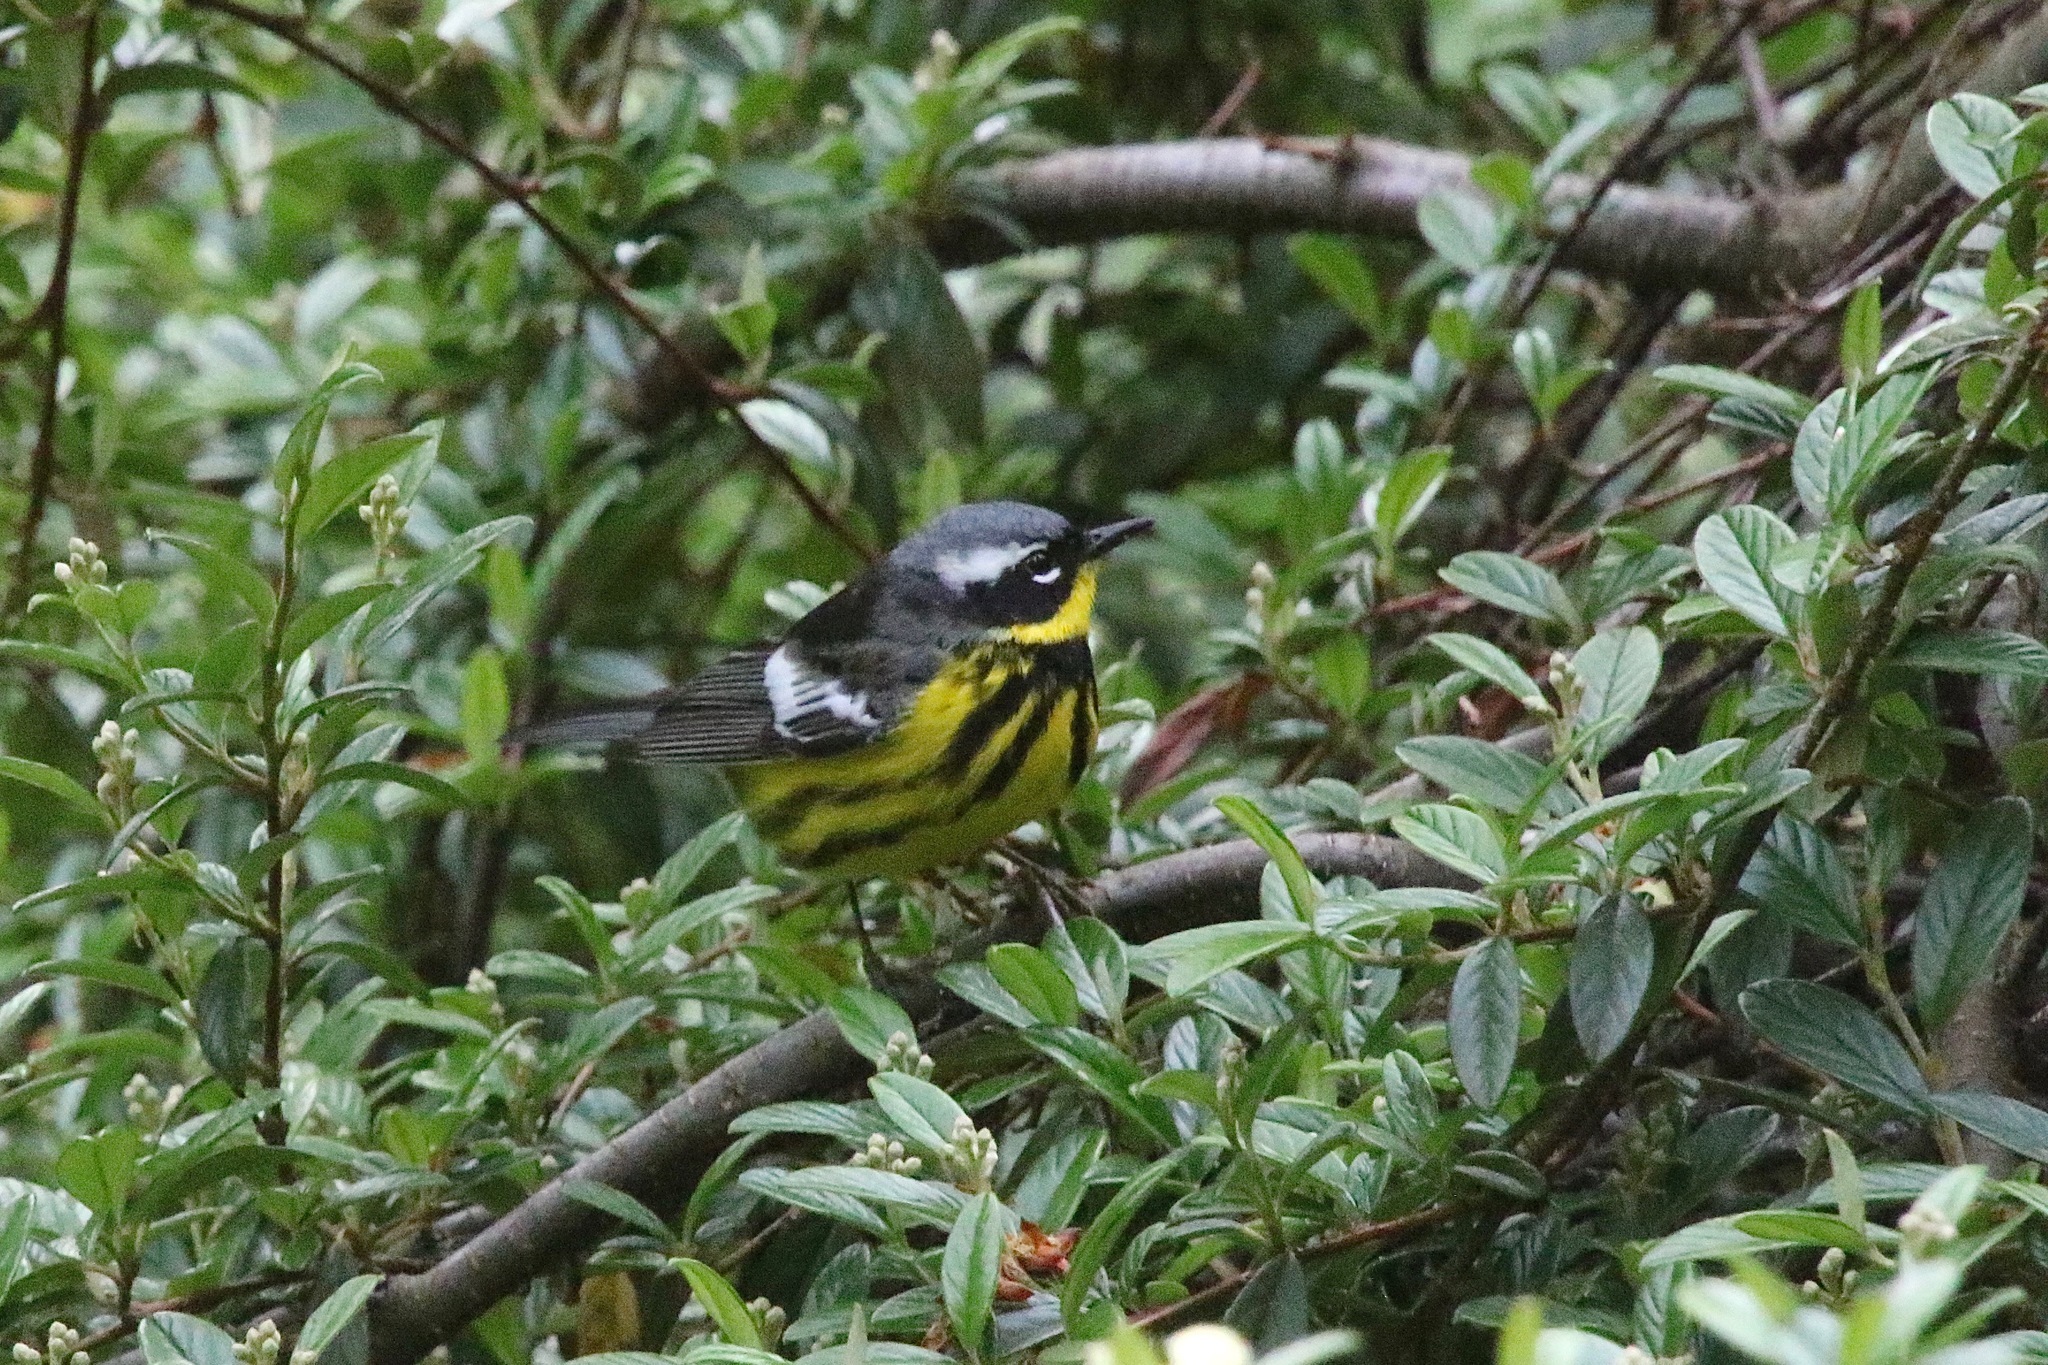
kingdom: Animalia
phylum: Chordata
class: Aves
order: Passeriformes
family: Parulidae
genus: Setophaga
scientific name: Setophaga magnolia
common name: Magnolia warbler
